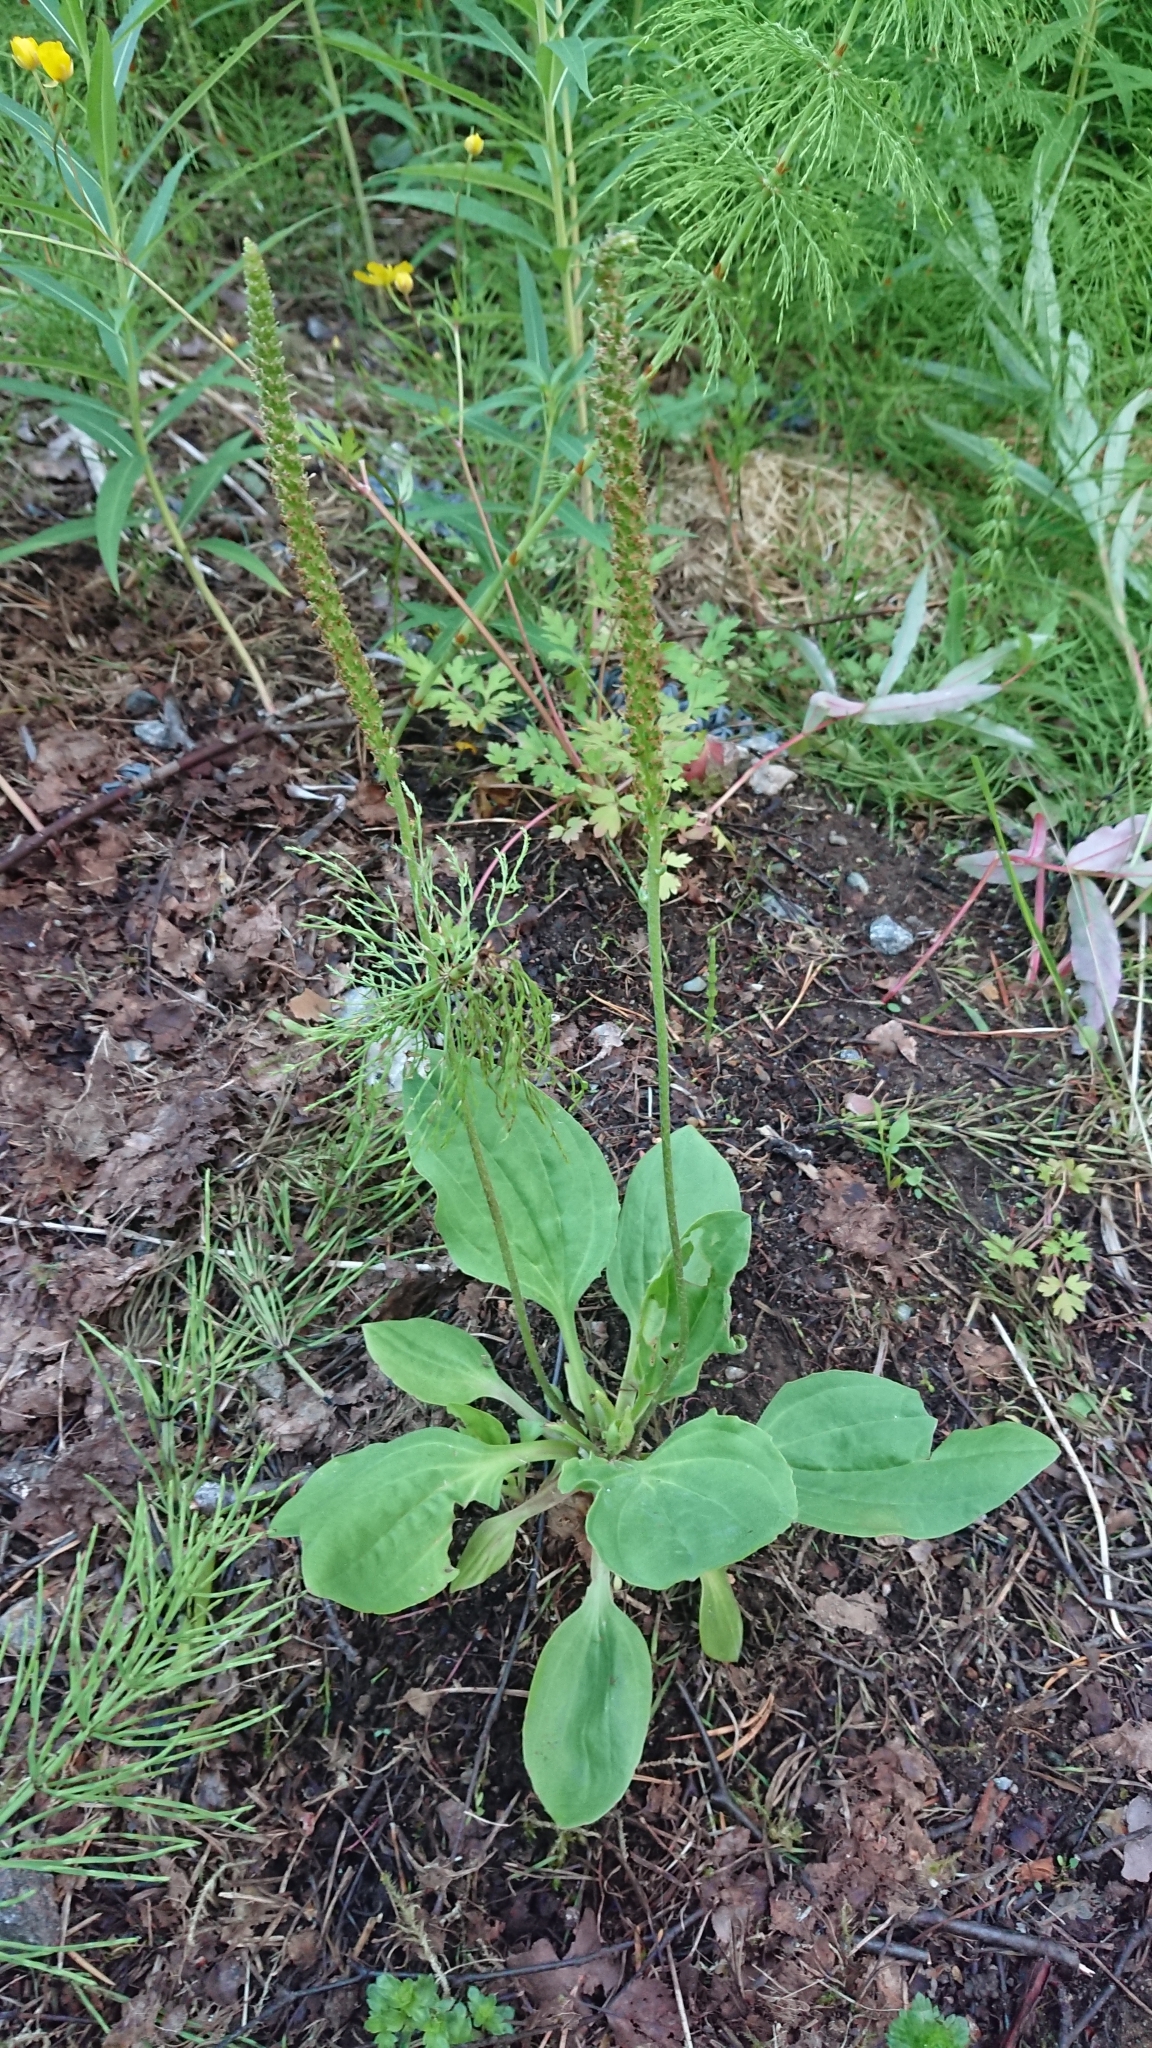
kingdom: Plantae
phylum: Tracheophyta
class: Magnoliopsida
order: Lamiales
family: Plantaginaceae
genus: Plantago
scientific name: Plantago major
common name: Common plantain
